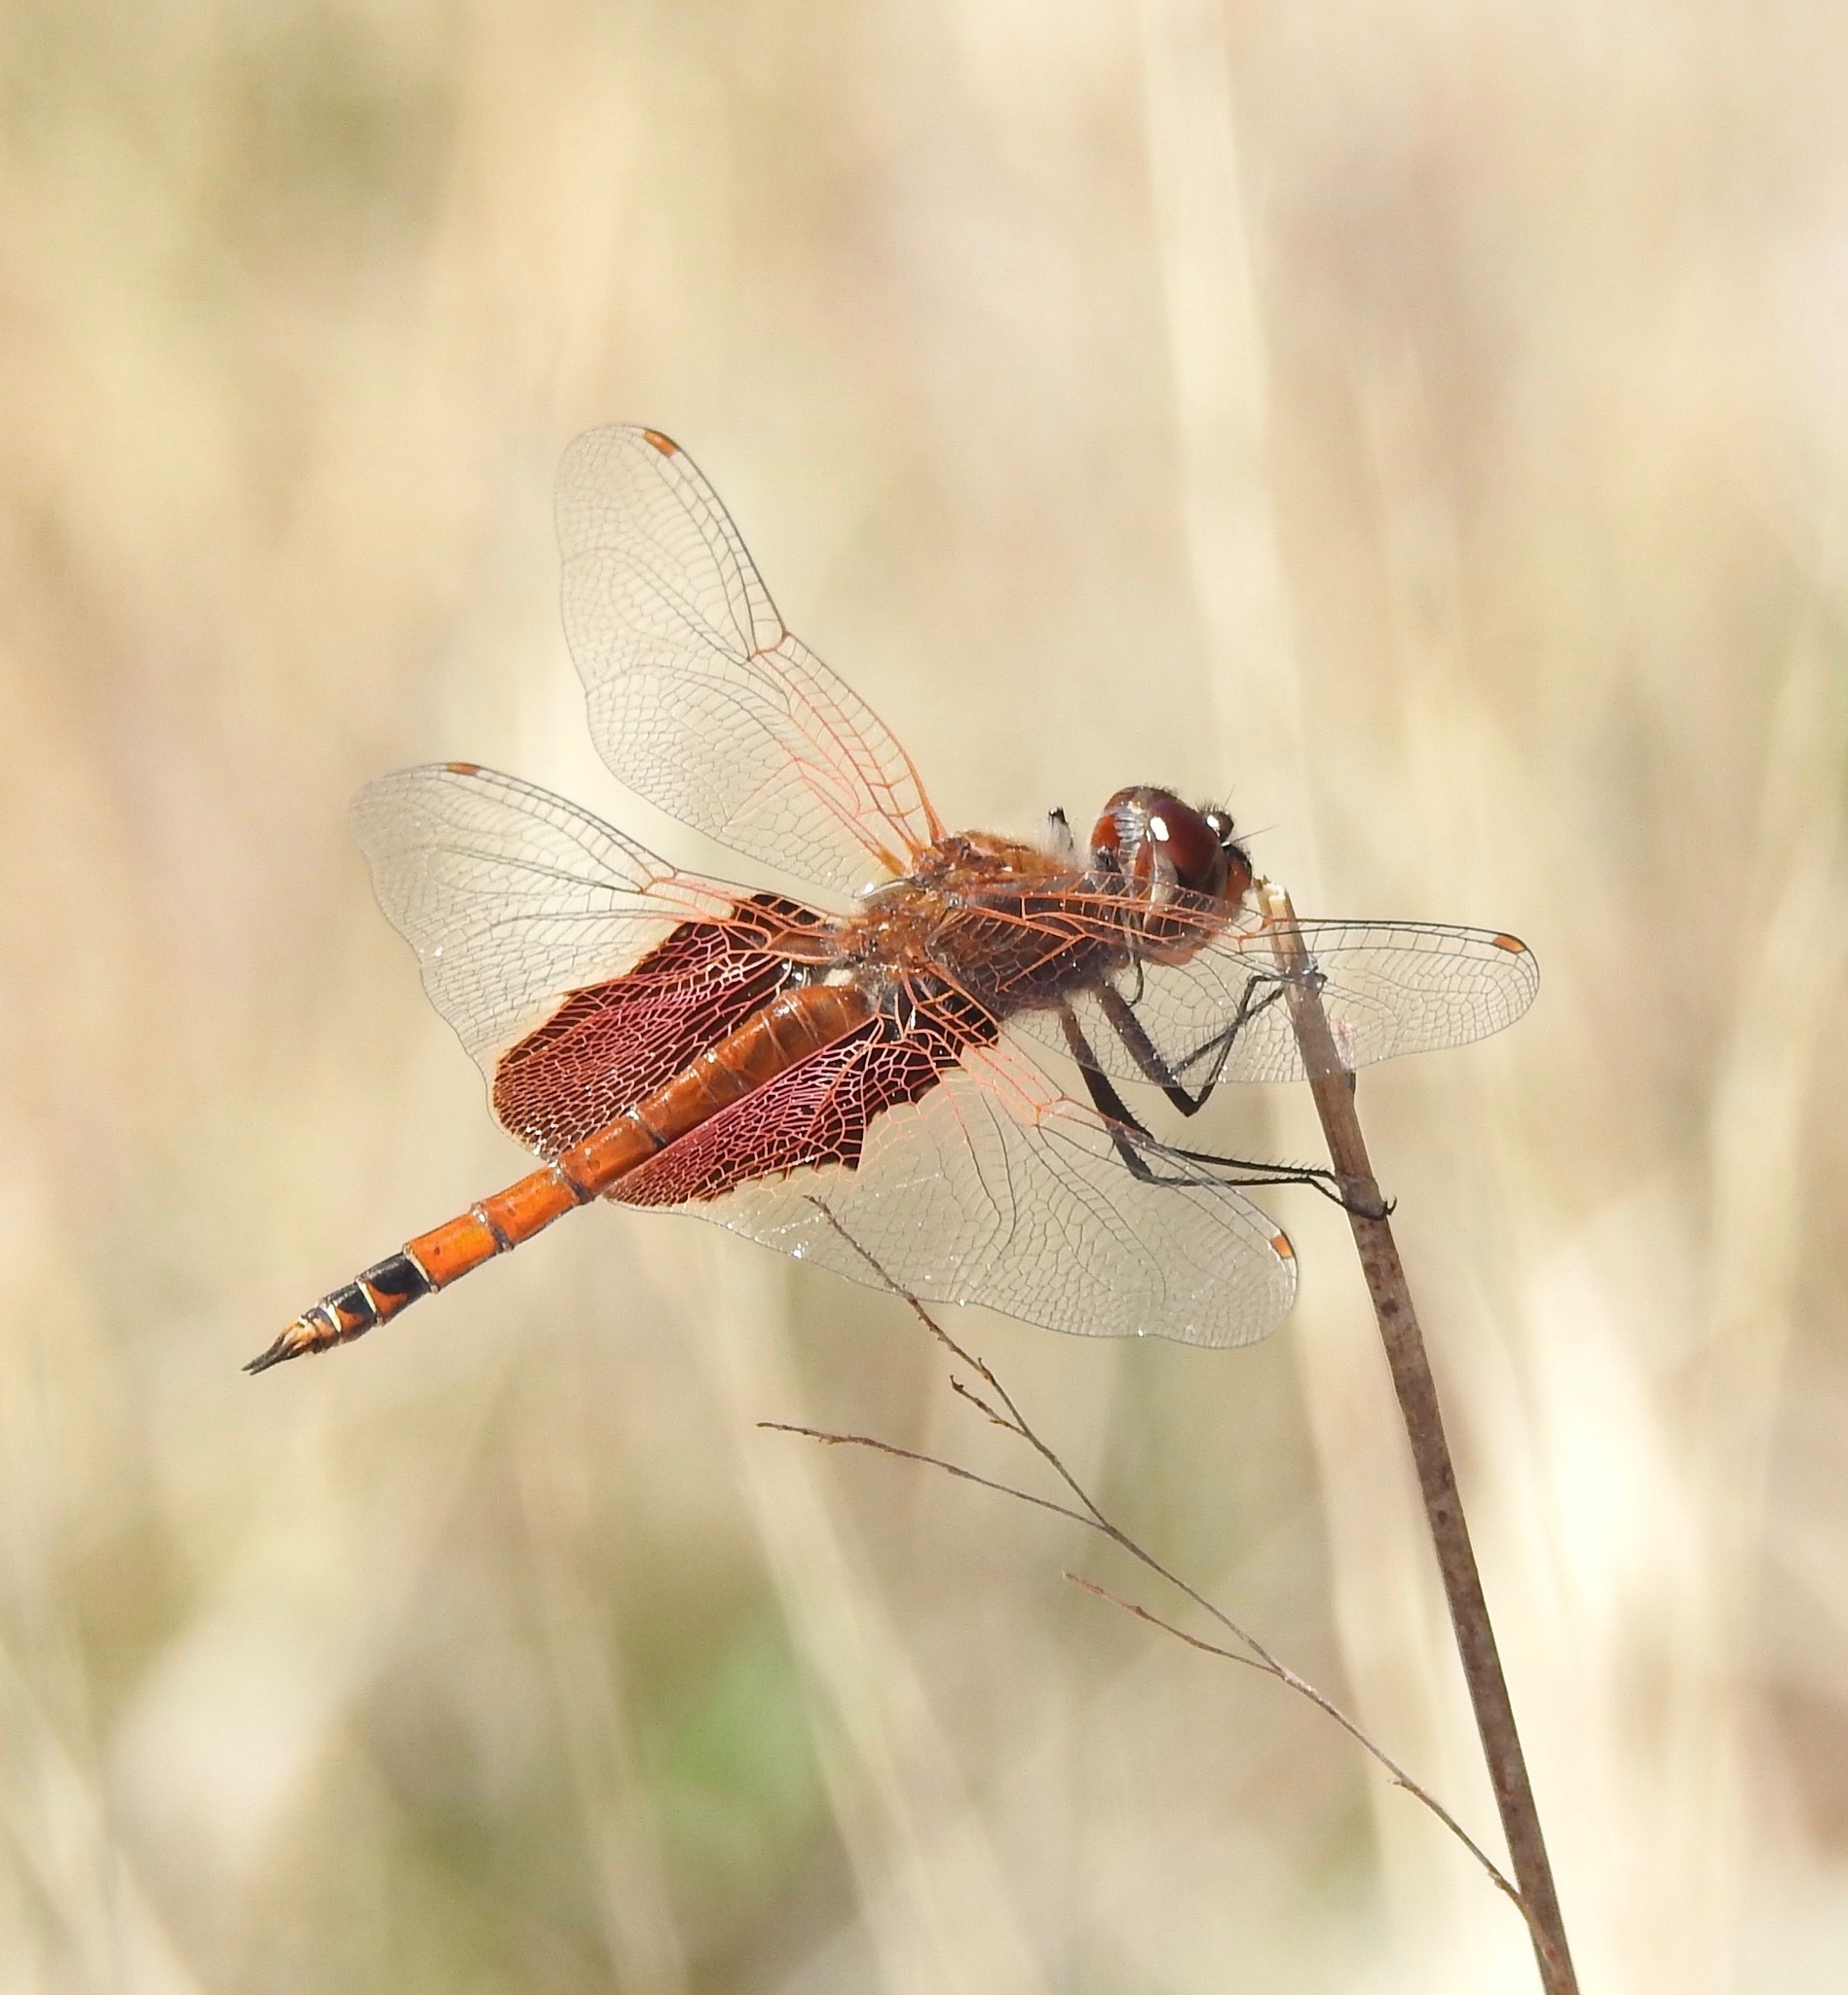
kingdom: Animalia
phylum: Arthropoda
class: Insecta
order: Odonata
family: Libellulidae
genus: Tramea
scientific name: Tramea carolina
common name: Carolina saddlebags
